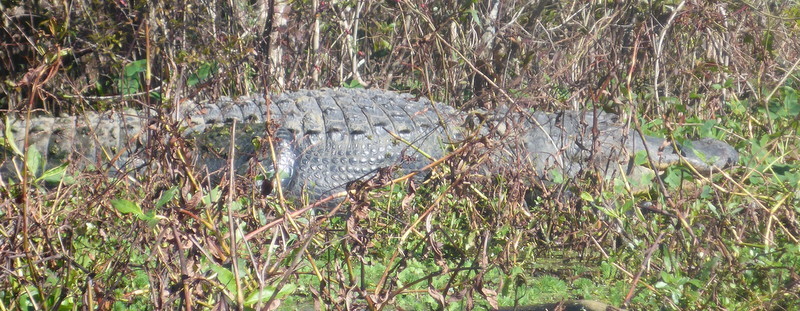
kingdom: Animalia
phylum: Chordata
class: Crocodylia
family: Alligatoridae
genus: Alligator
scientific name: Alligator mississippiensis
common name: American alligator
